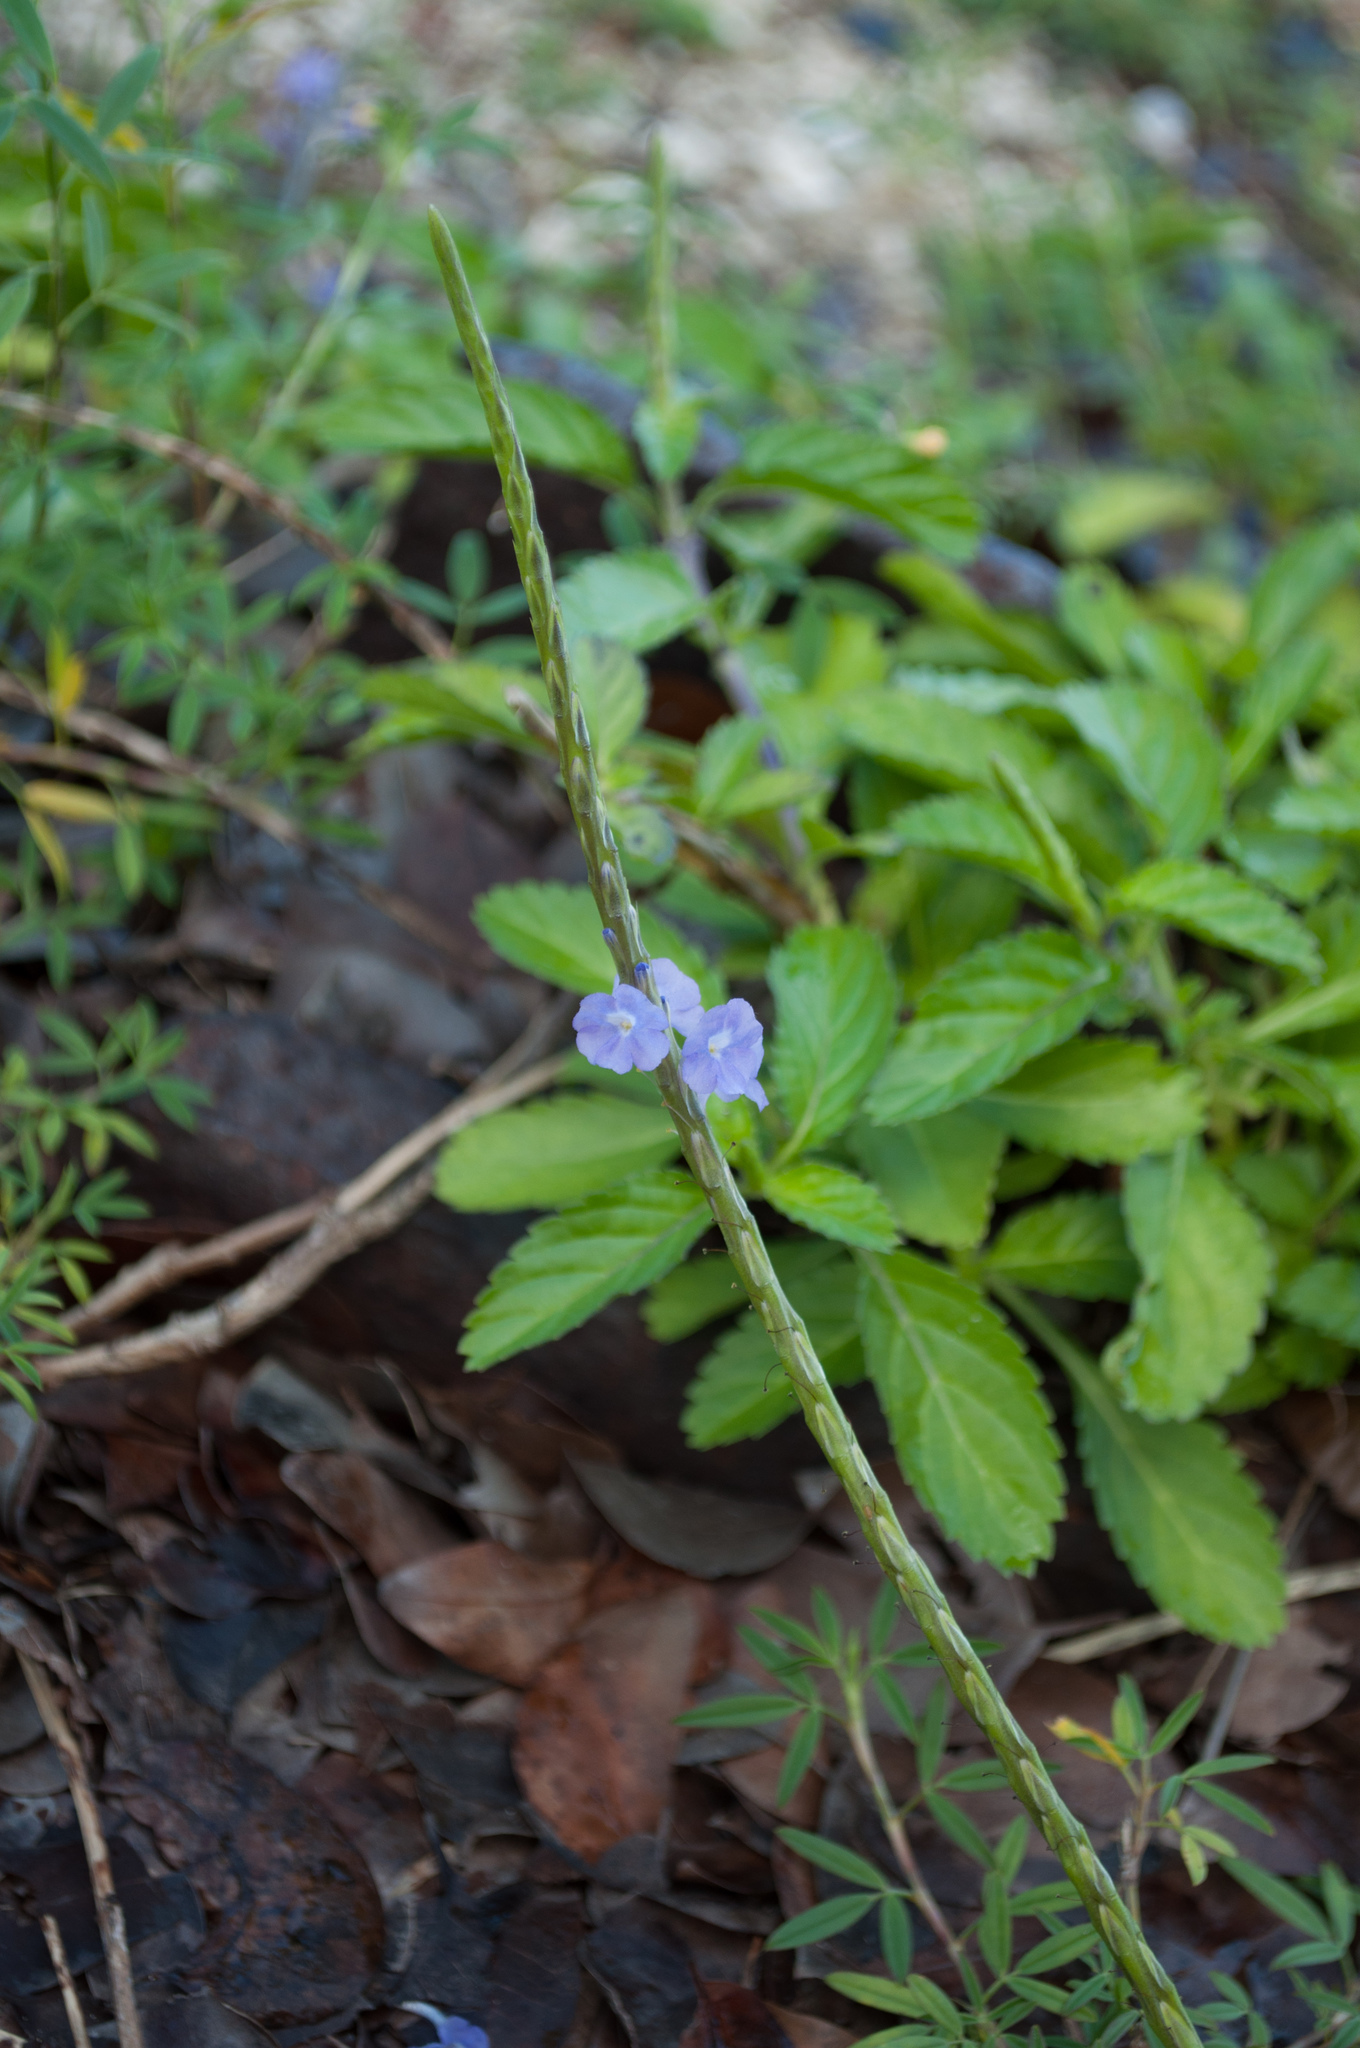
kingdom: Plantae
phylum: Tracheophyta
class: Magnoliopsida
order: Lamiales
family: Verbenaceae
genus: Stachytarpheta
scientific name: Stachytarpheta jamaicensis
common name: Light-blue snakeweed
